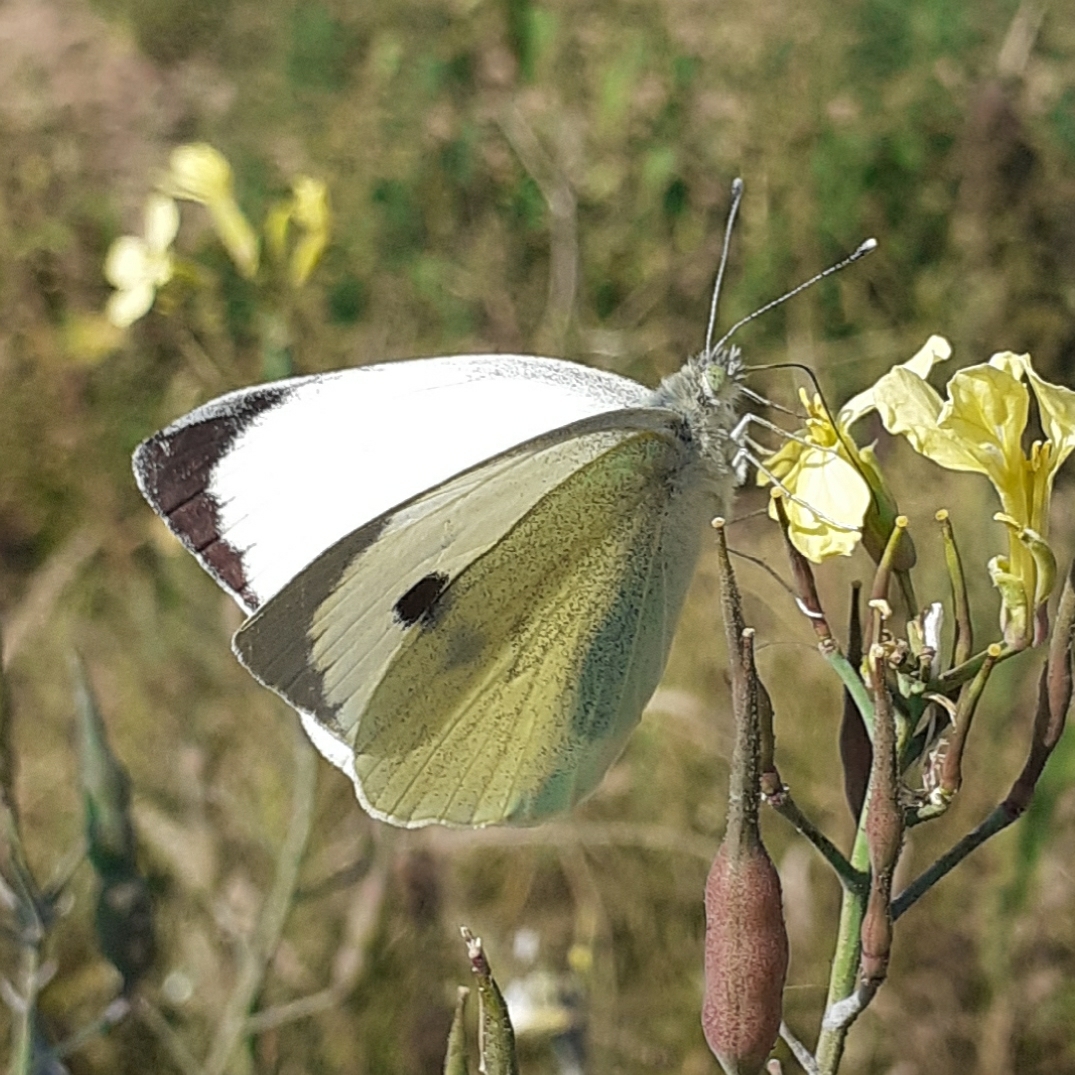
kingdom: Animalia
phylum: Arthropoda
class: Insecta
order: Lepidoptera
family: Pieridae
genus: Pieris
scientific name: Pieris brassicae
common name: Large white
